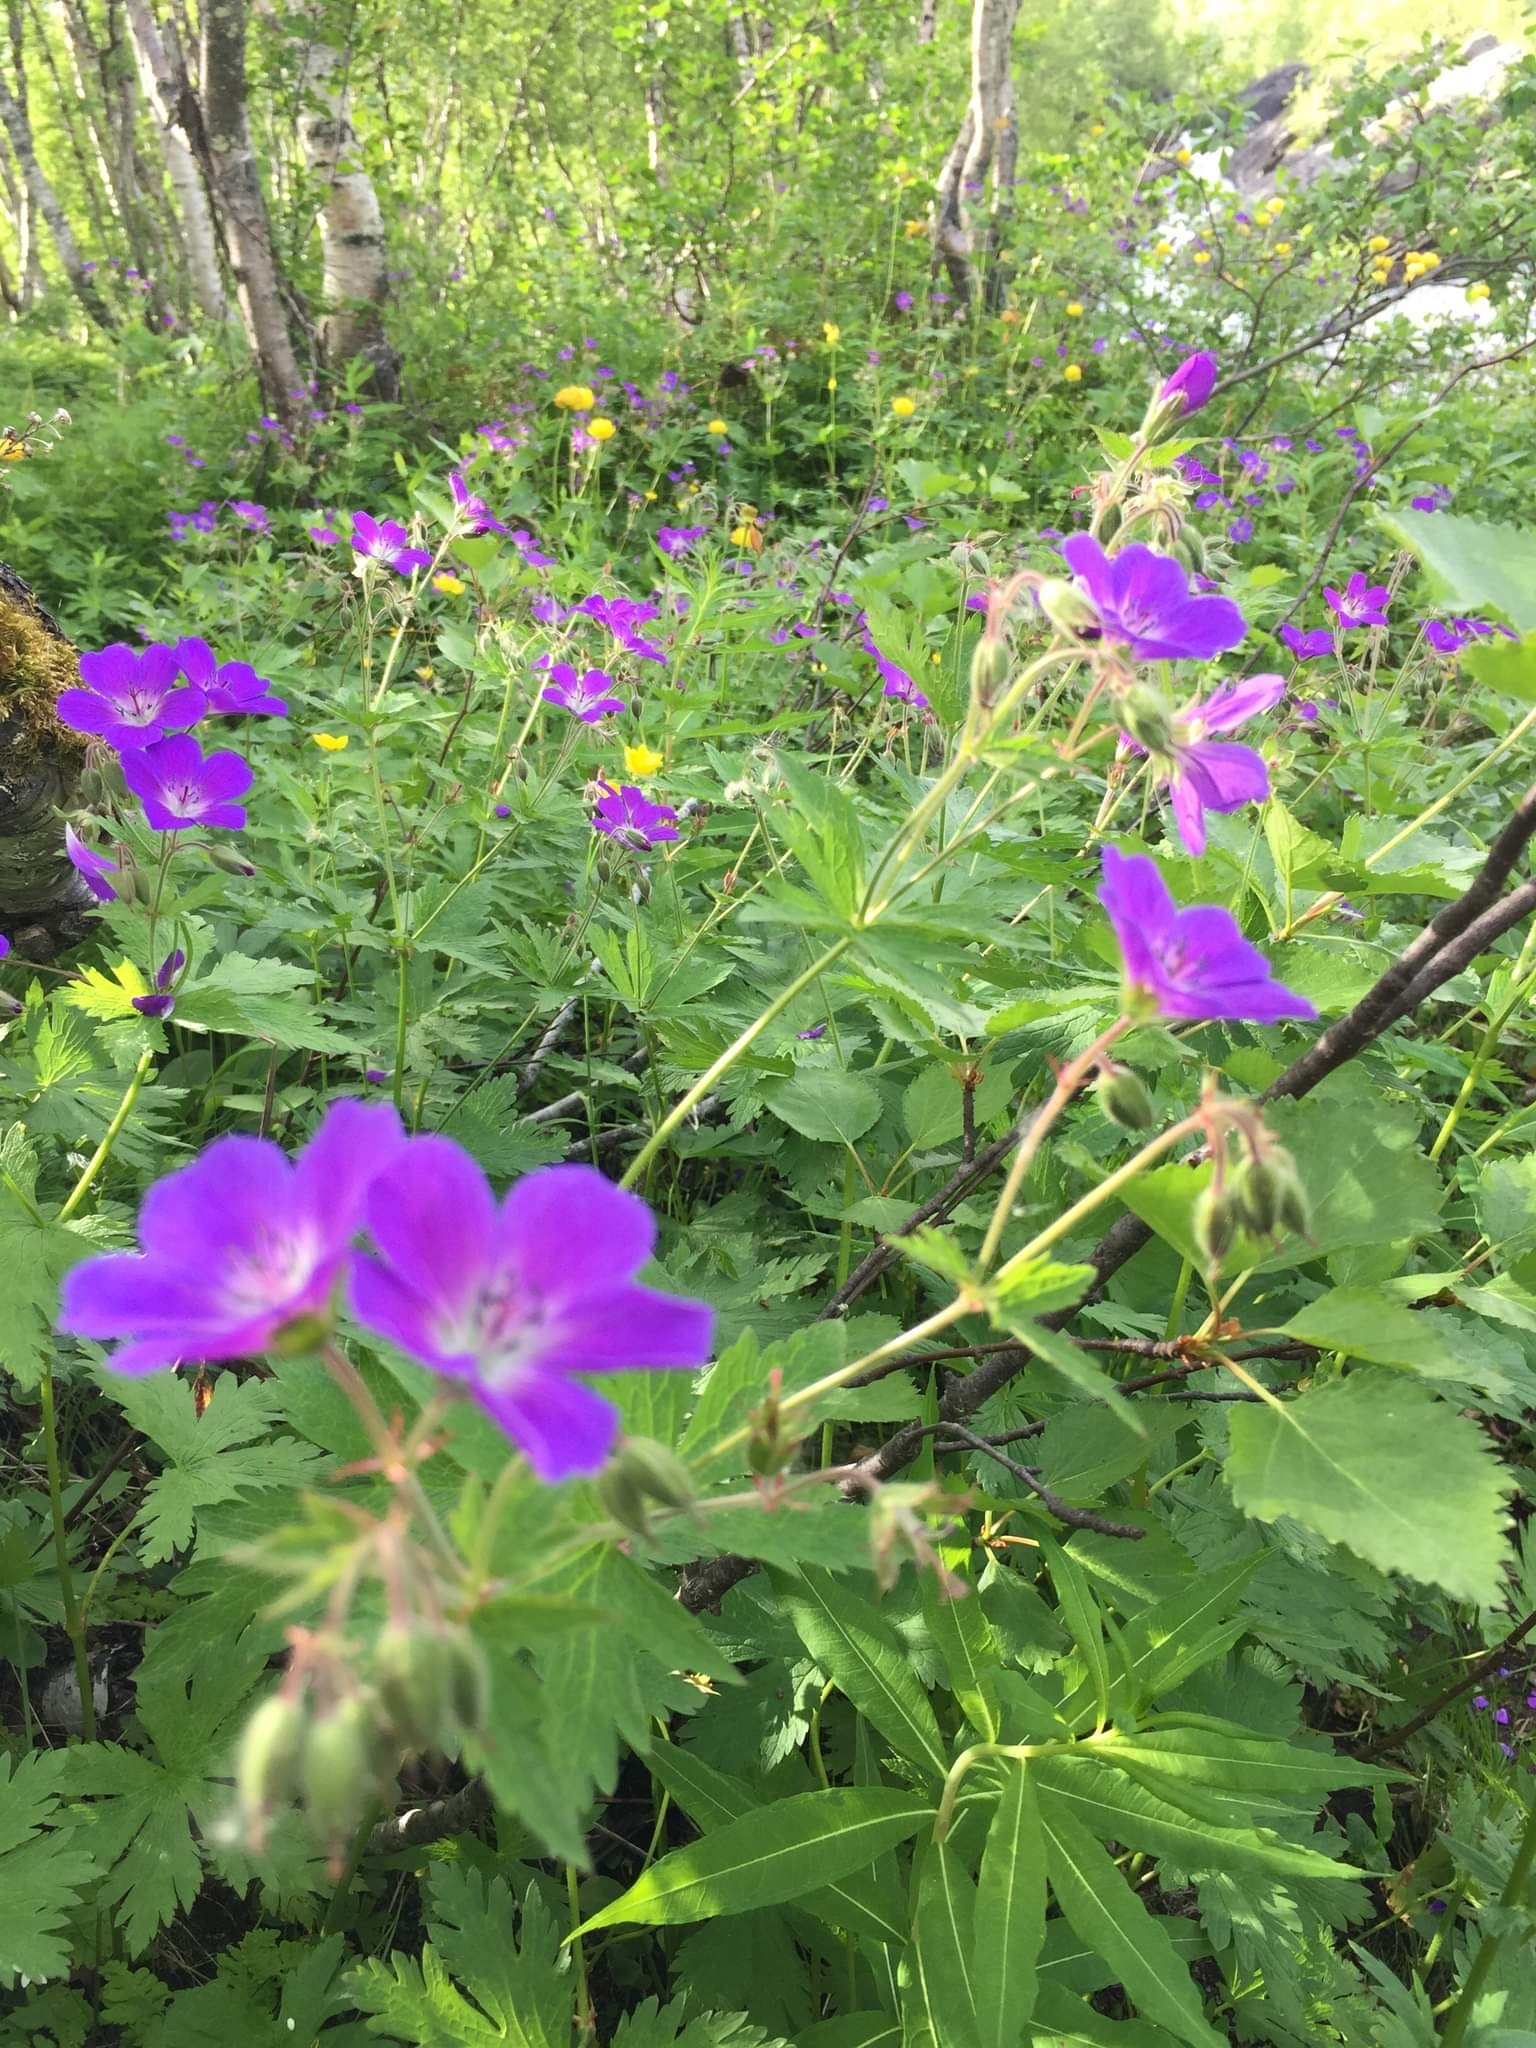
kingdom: Plantae
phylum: Tracheophyta
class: Magnoliopsida
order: Geraniales
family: Geraniaceae
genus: Geranium
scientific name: Geranium sylvaticum
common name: Wood crane's-bill
